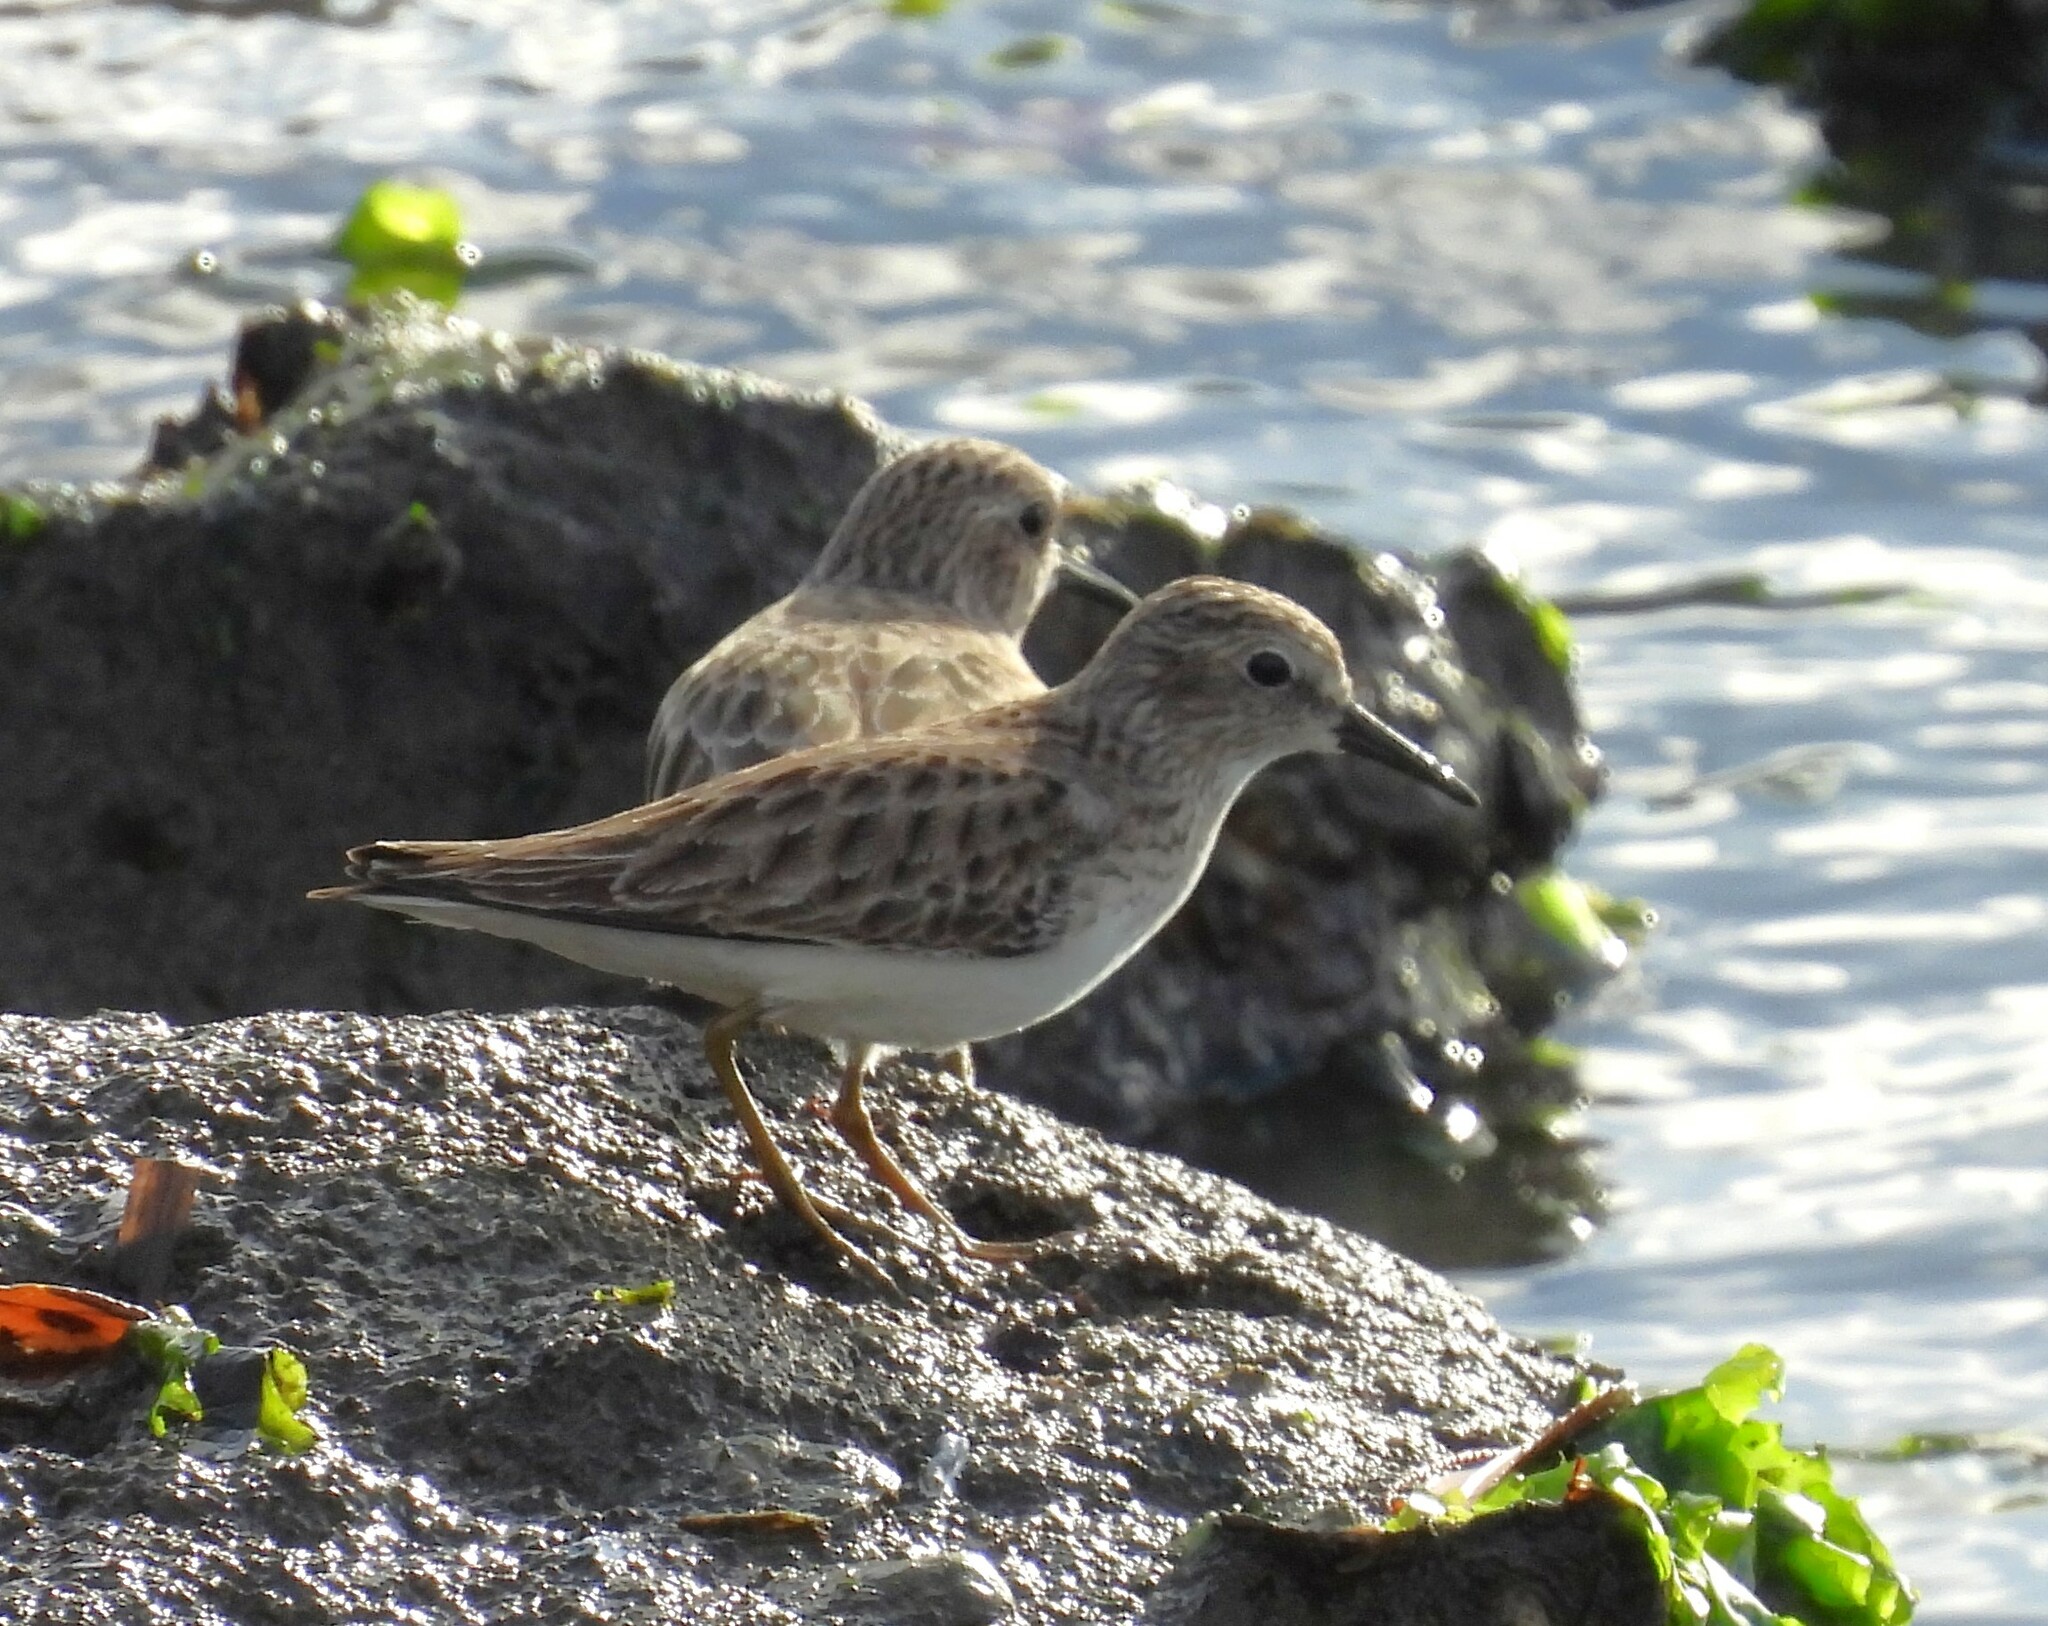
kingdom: Animalia
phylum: Chordata
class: Aves
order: Charadriiformes
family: Scolopacidae
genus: Calidris
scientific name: Calidris minutilla
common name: Least sandpiper
